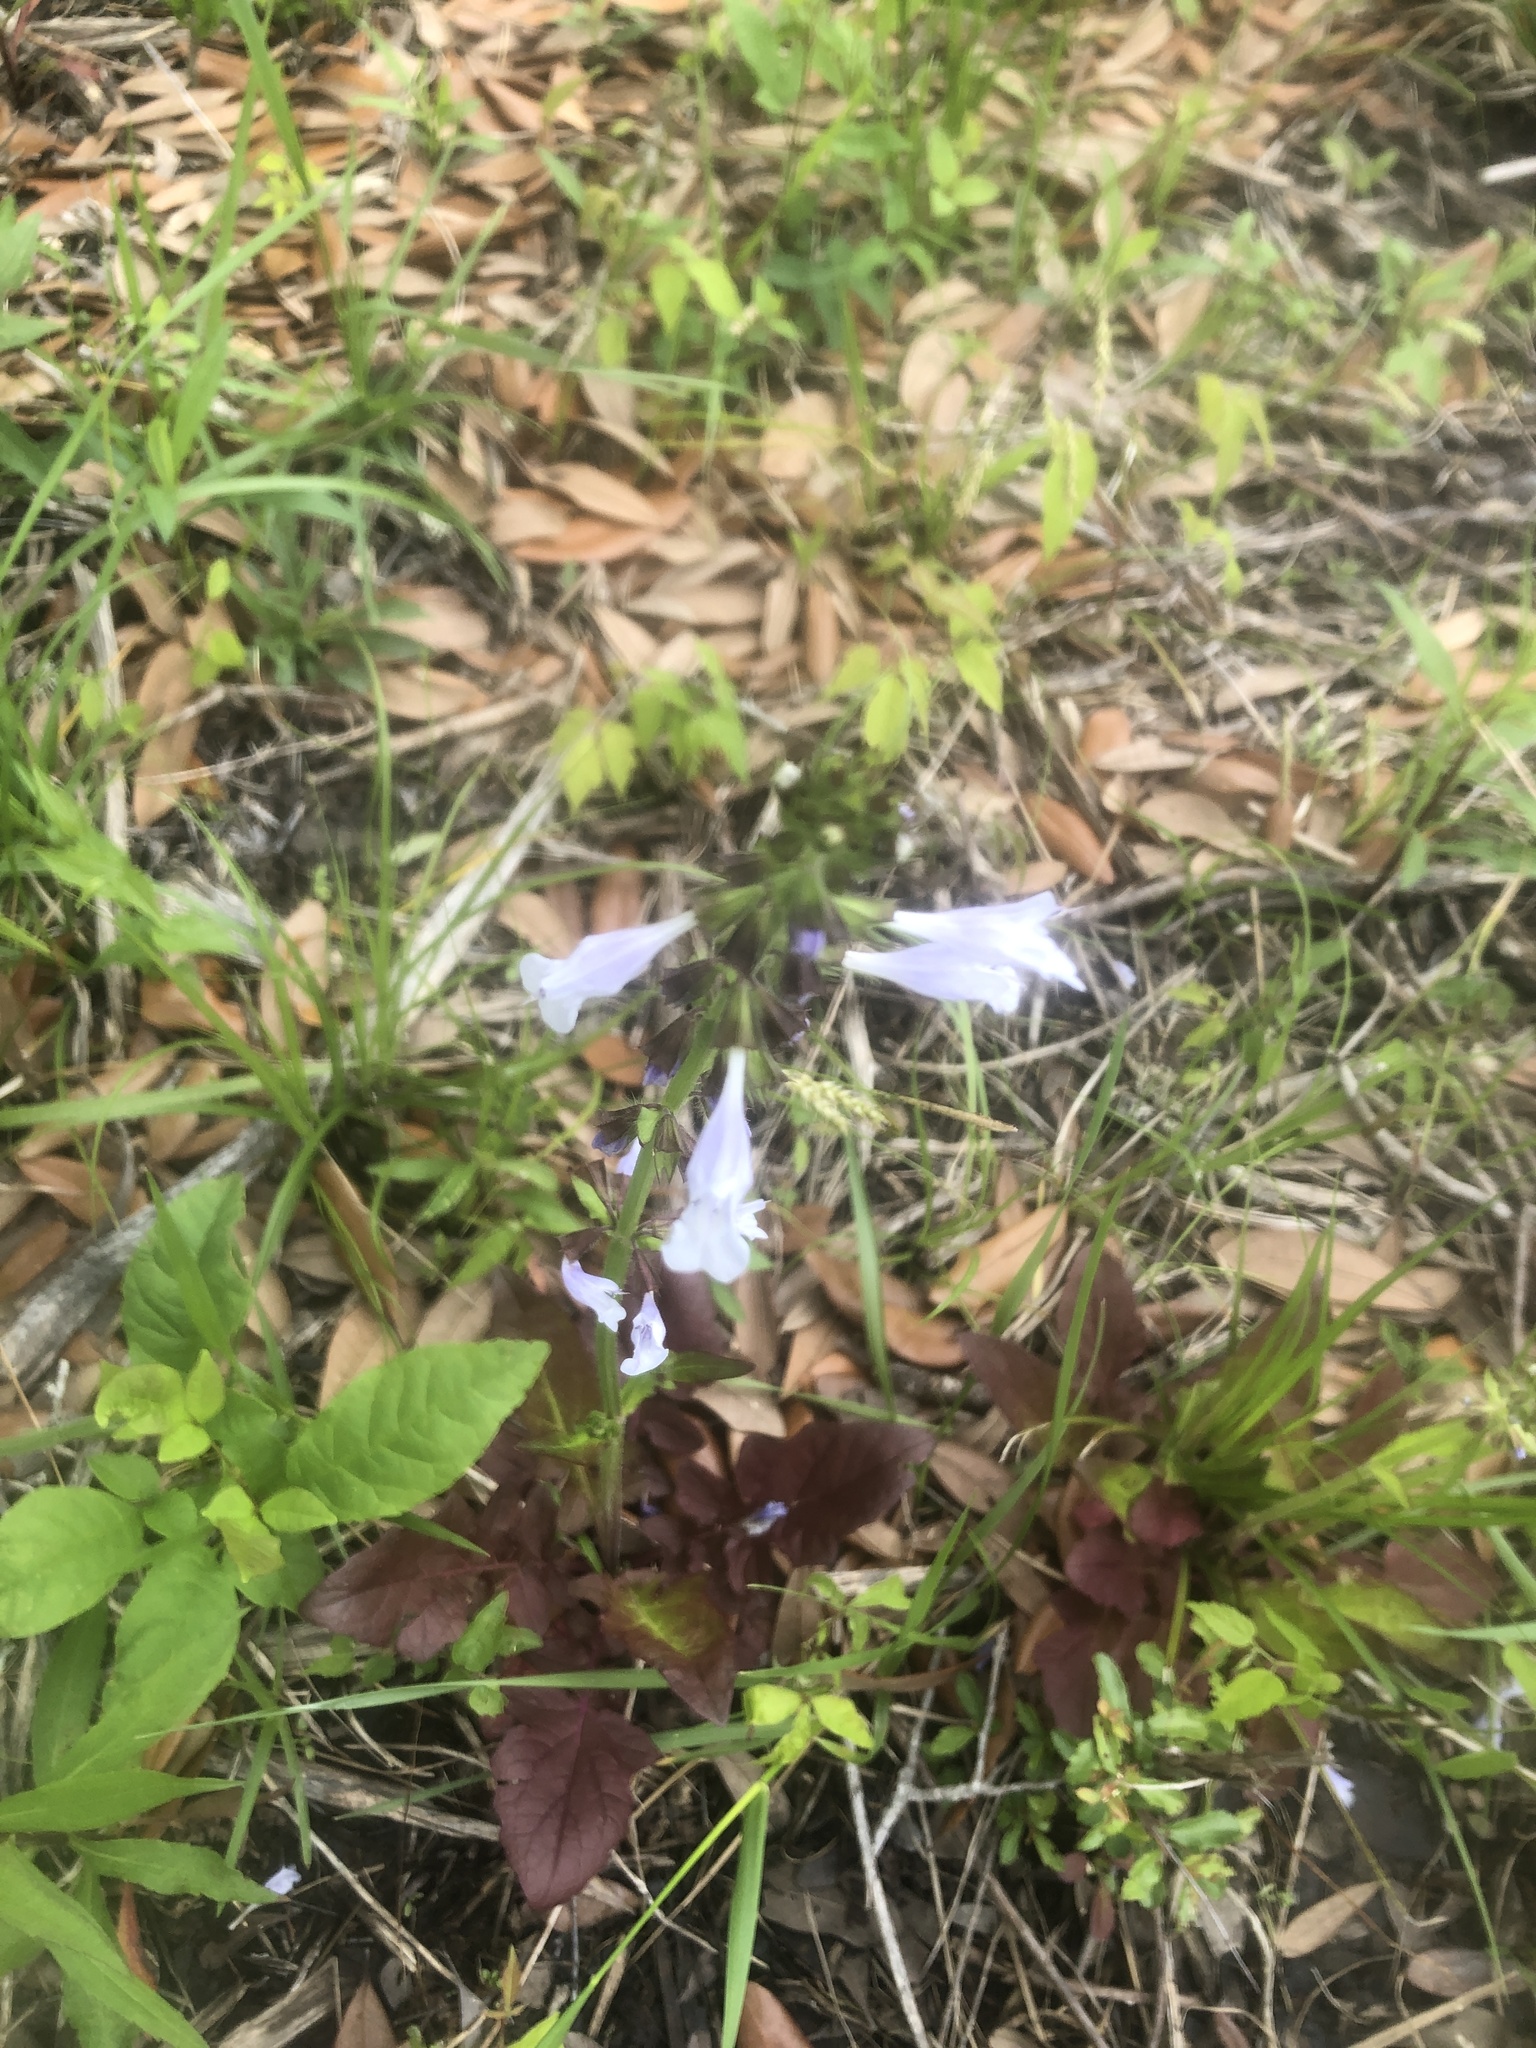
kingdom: Plantae
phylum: Tracheophyta
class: Magnoliopsida
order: Lamiales
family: Lamiaceae
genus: Salvia
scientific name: Salvia lyrata
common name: Cancerweed
